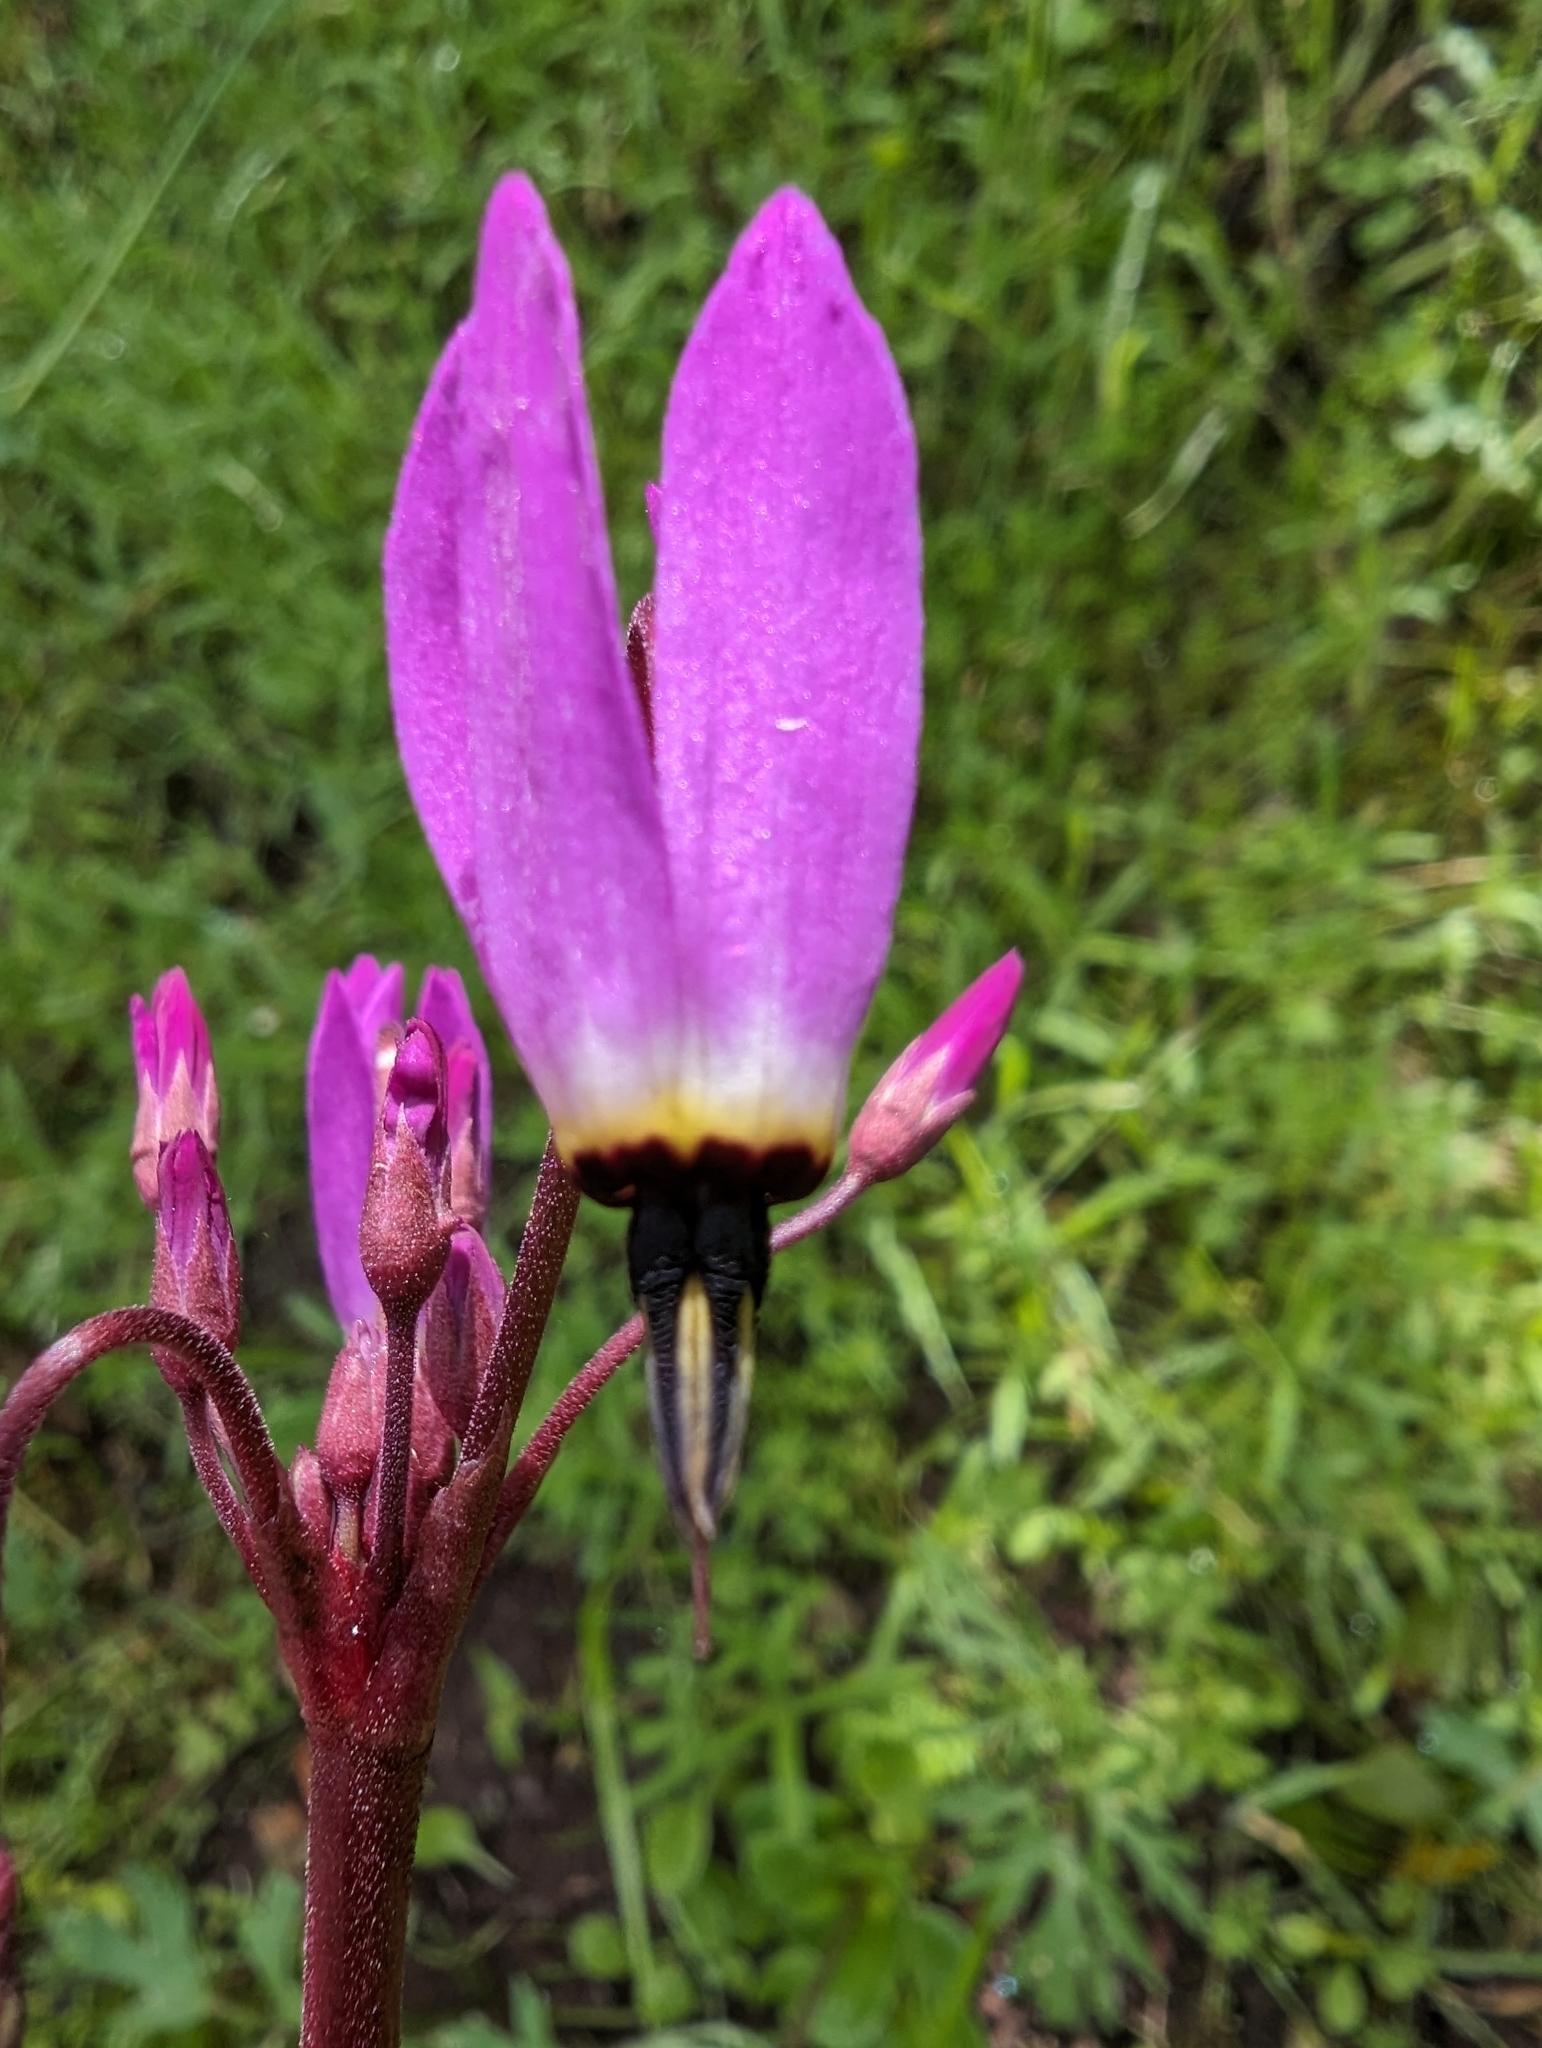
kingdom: Plantae
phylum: Tracheophyta
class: Magnoliopsida
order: Ericales
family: Primulaceae
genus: Dodecatheon
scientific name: Dodecatheon hendersonii
